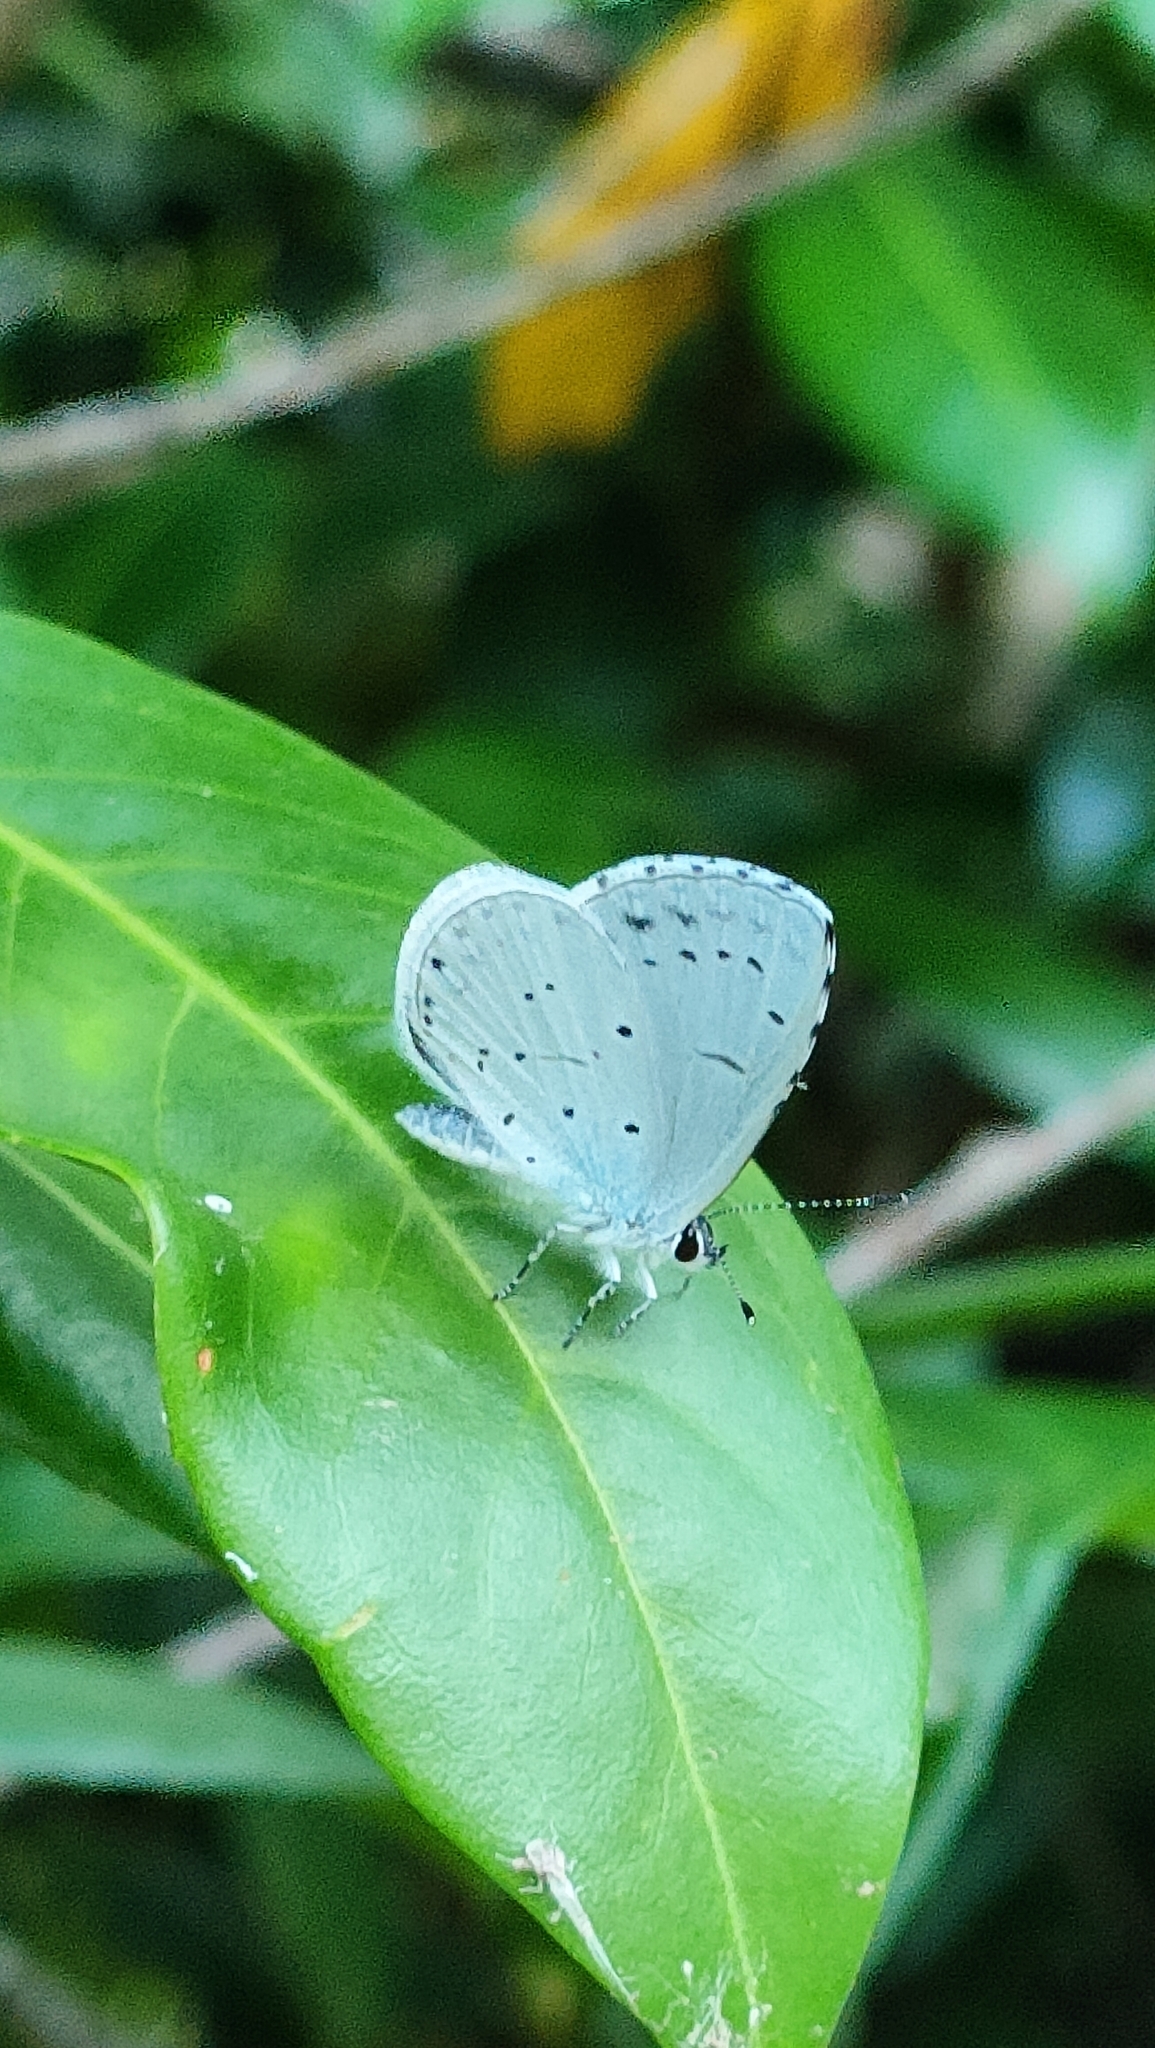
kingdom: Animalia
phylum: Arthropoda
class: Insecta
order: Lepidoptera
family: Lycaenidae
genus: Celastrina
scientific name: Celastrina argiolus
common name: Holly blue
